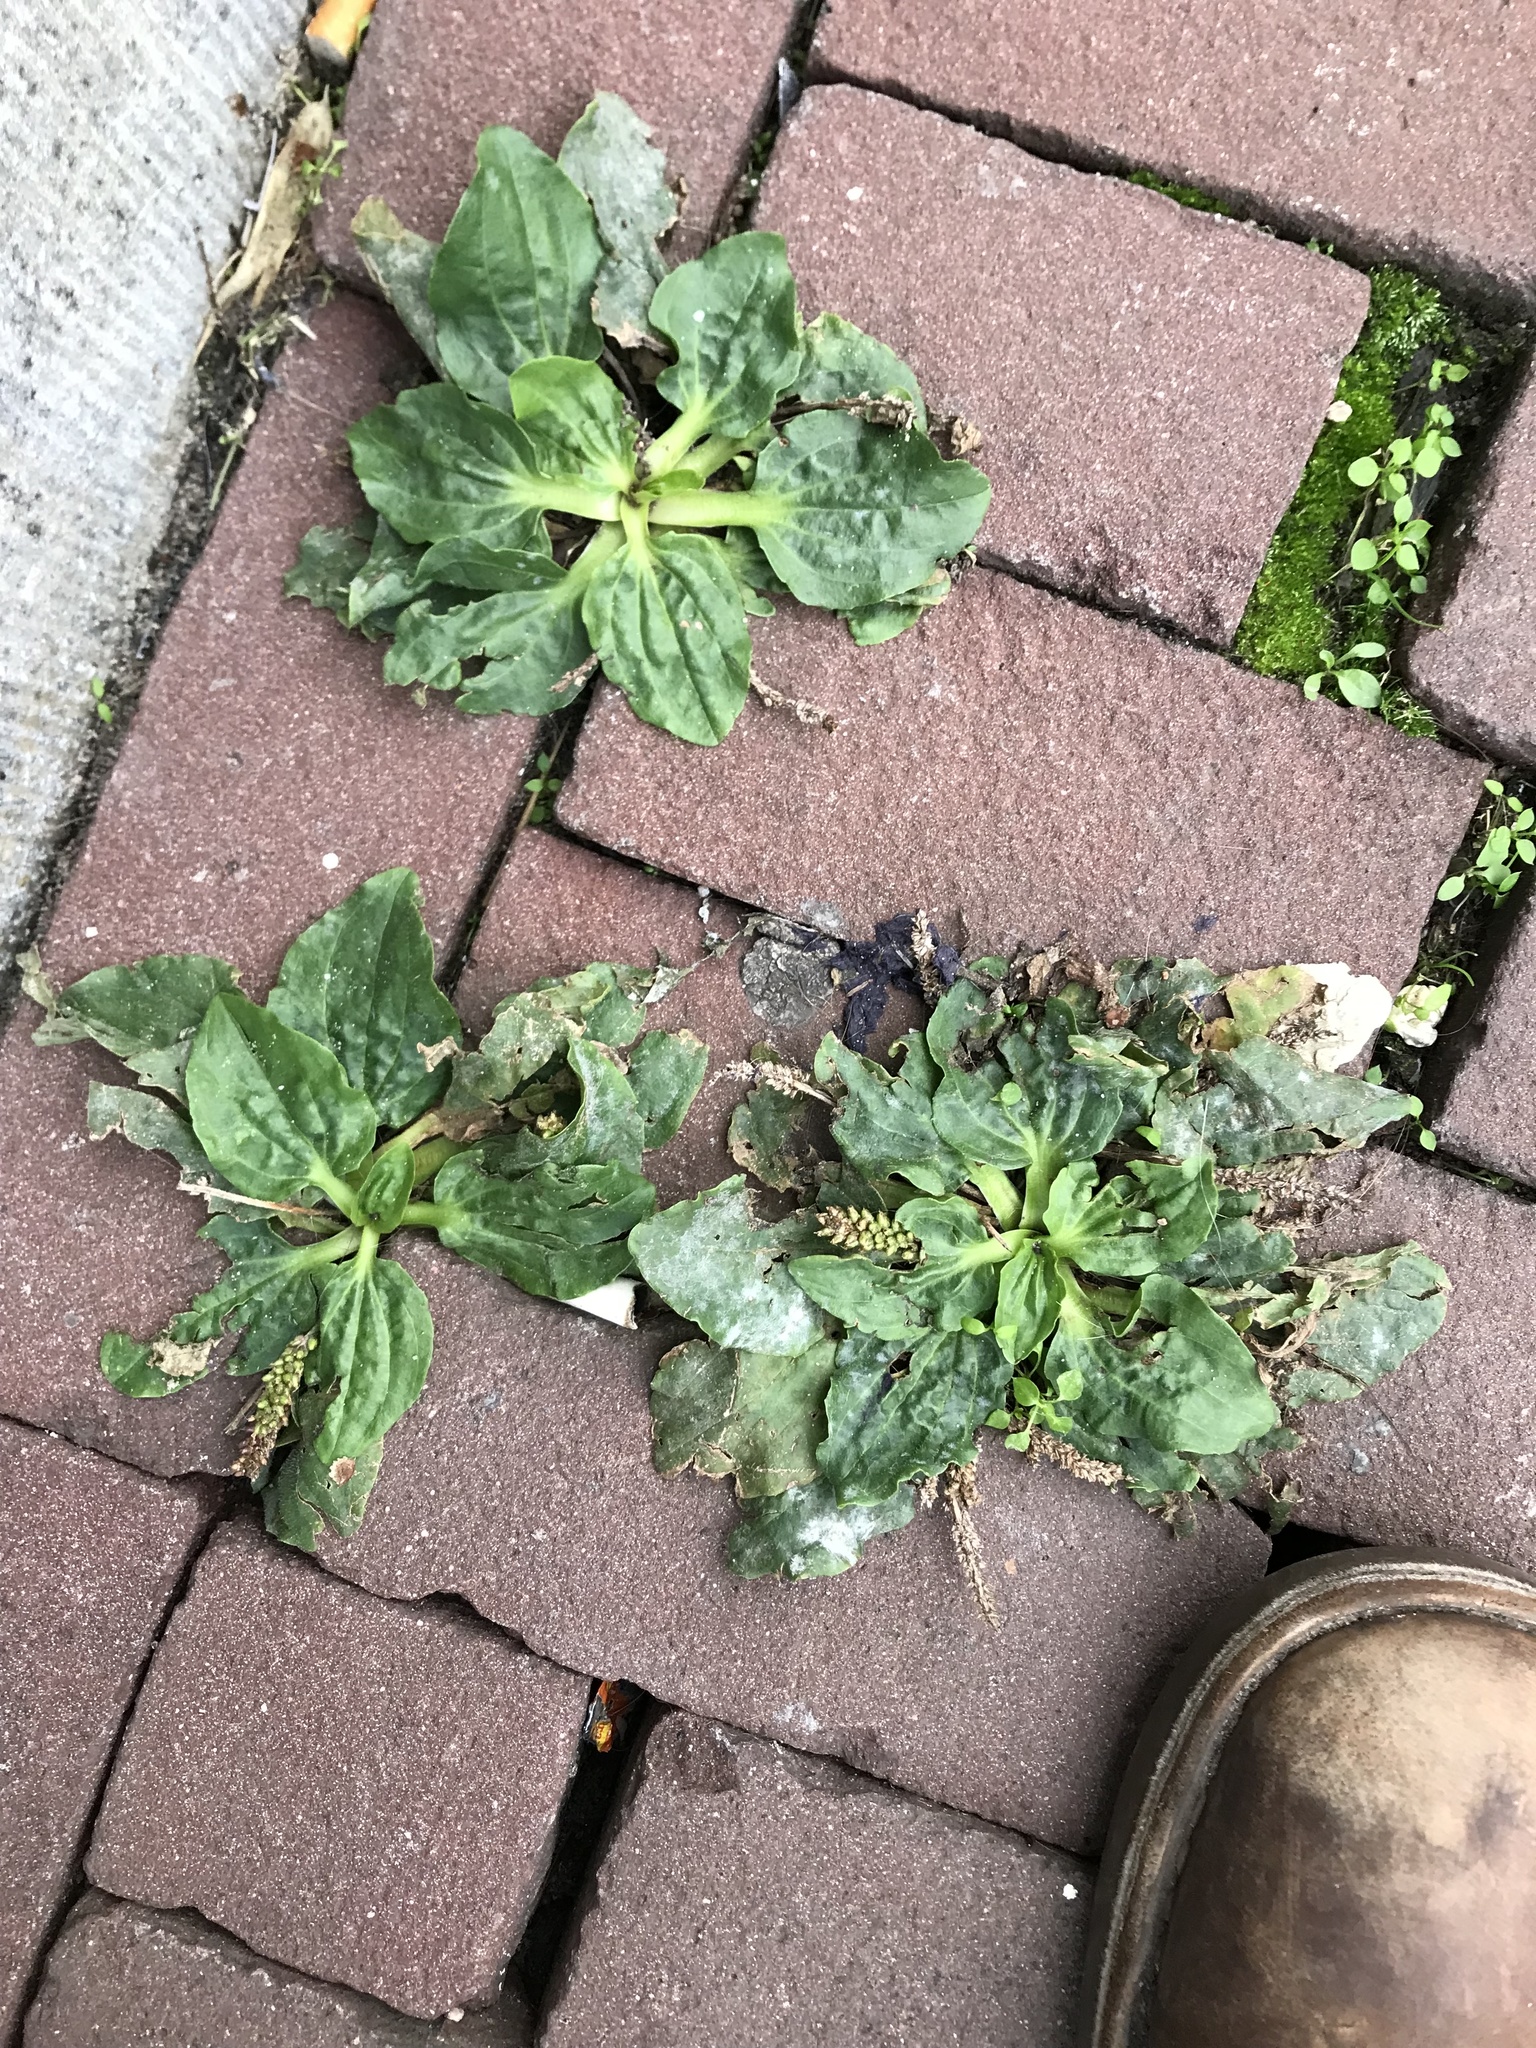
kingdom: Plantae
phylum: Tracheophyta
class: Magnoliopsida
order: Lamiales
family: Plantaginaceae
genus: Plantago
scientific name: Plantago major
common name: Common plantain
